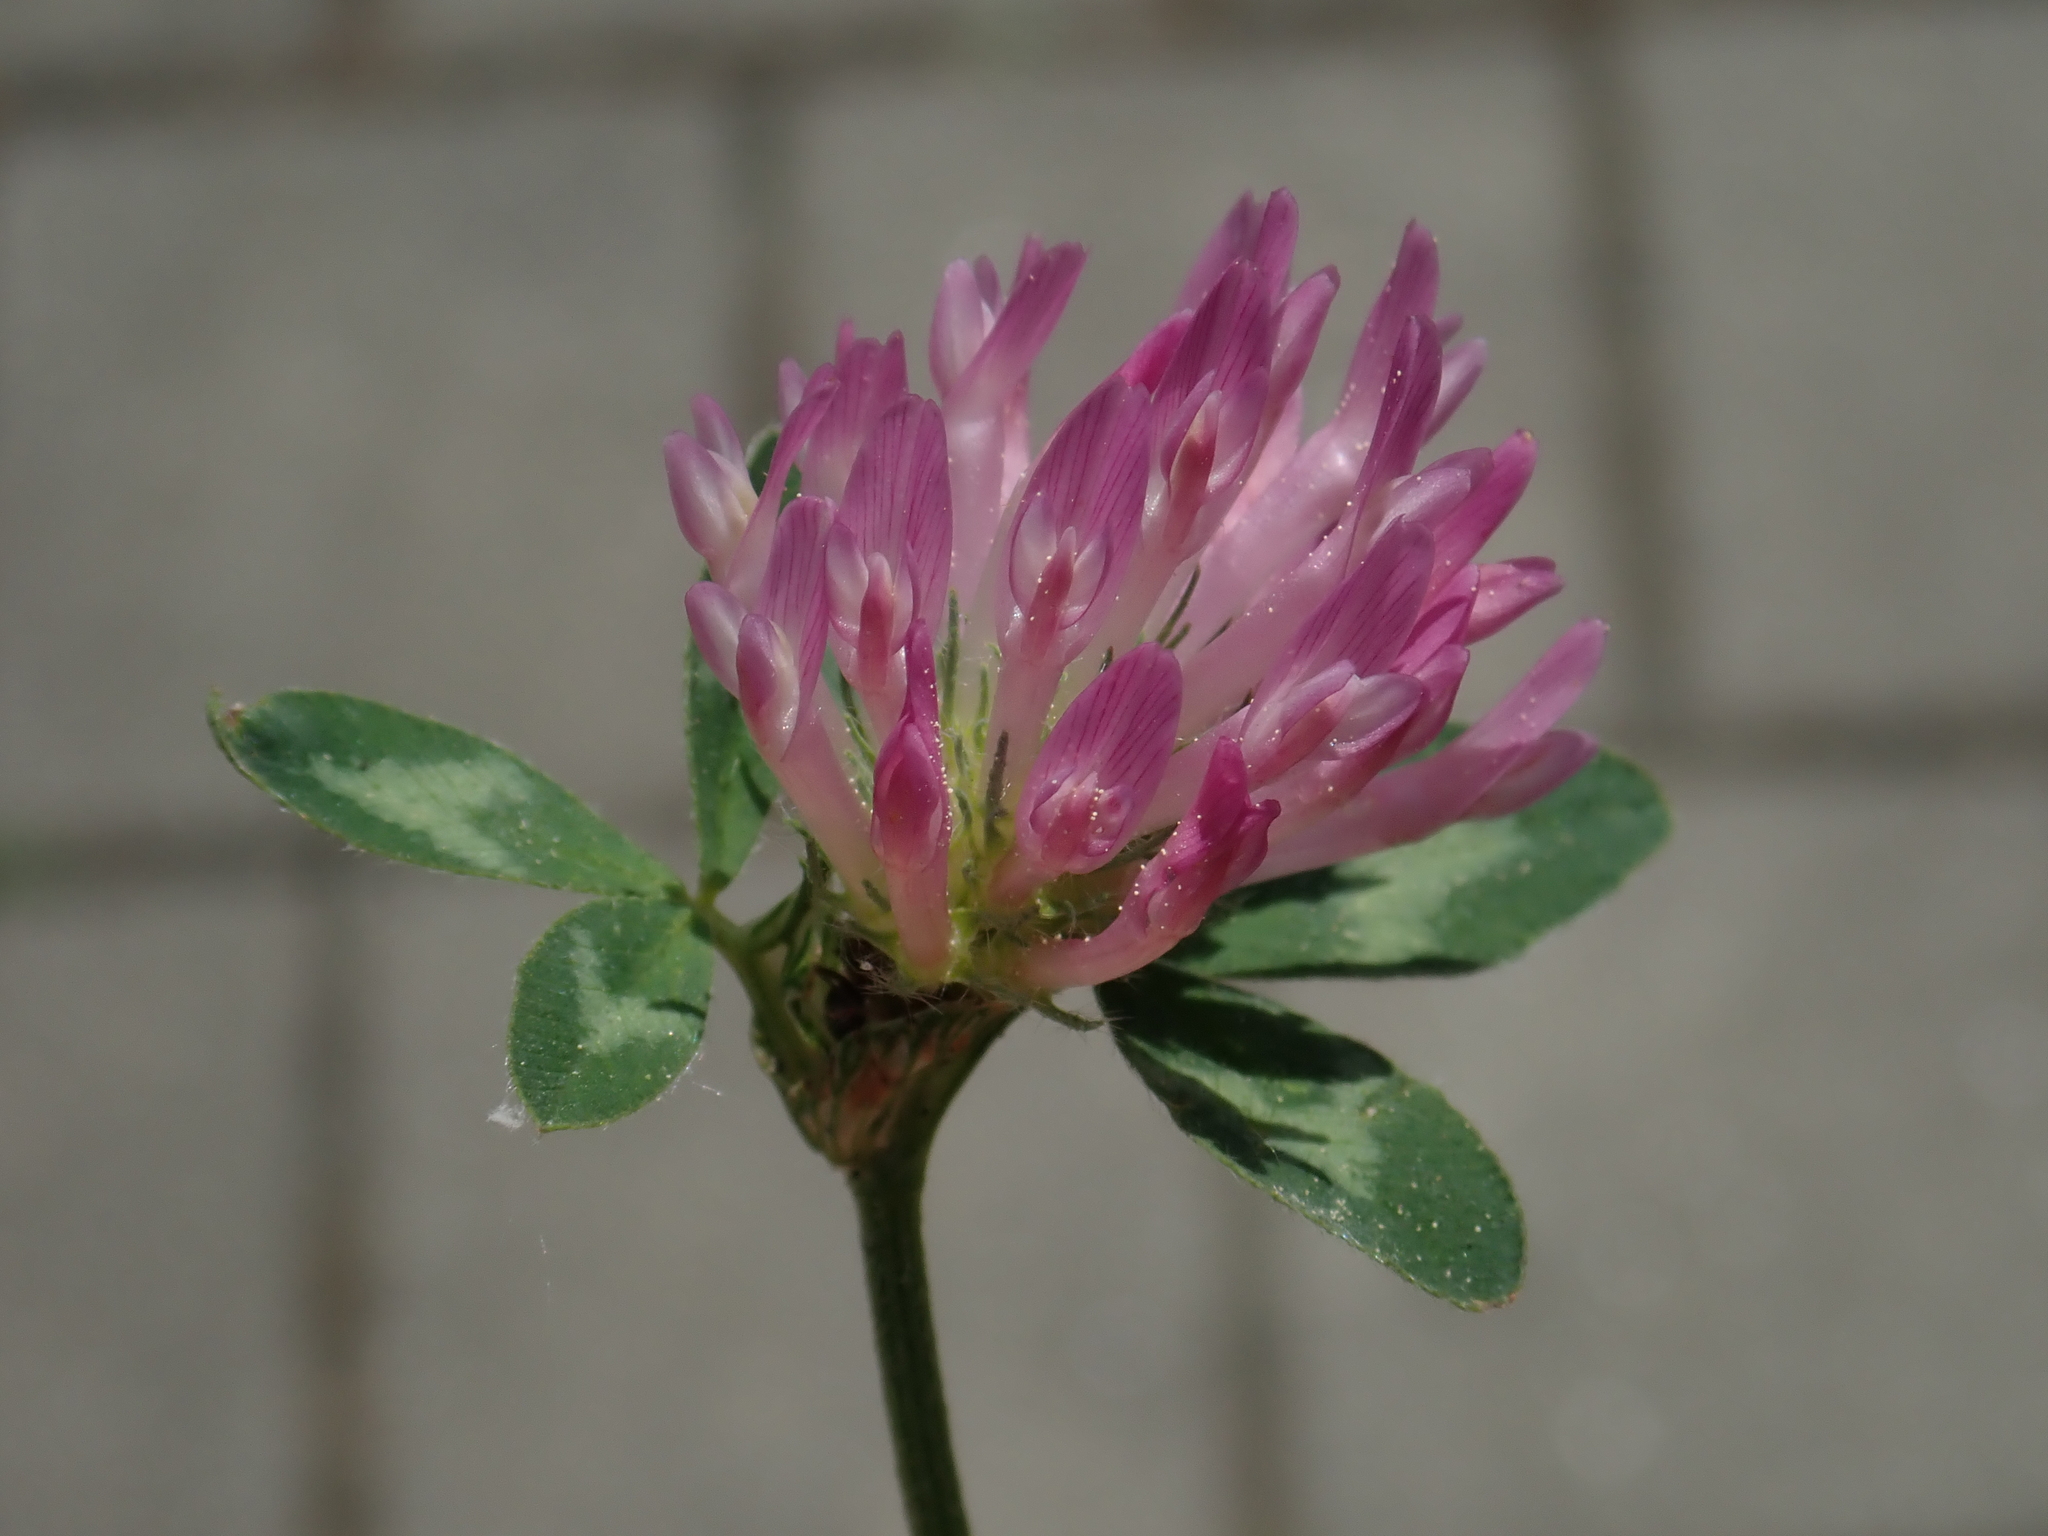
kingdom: Plantae
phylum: Tracheophyta
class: Magnoliopsida
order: Fabales
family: Fabaceae
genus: Trifolium
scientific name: Trifolium pratense
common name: Red clover
